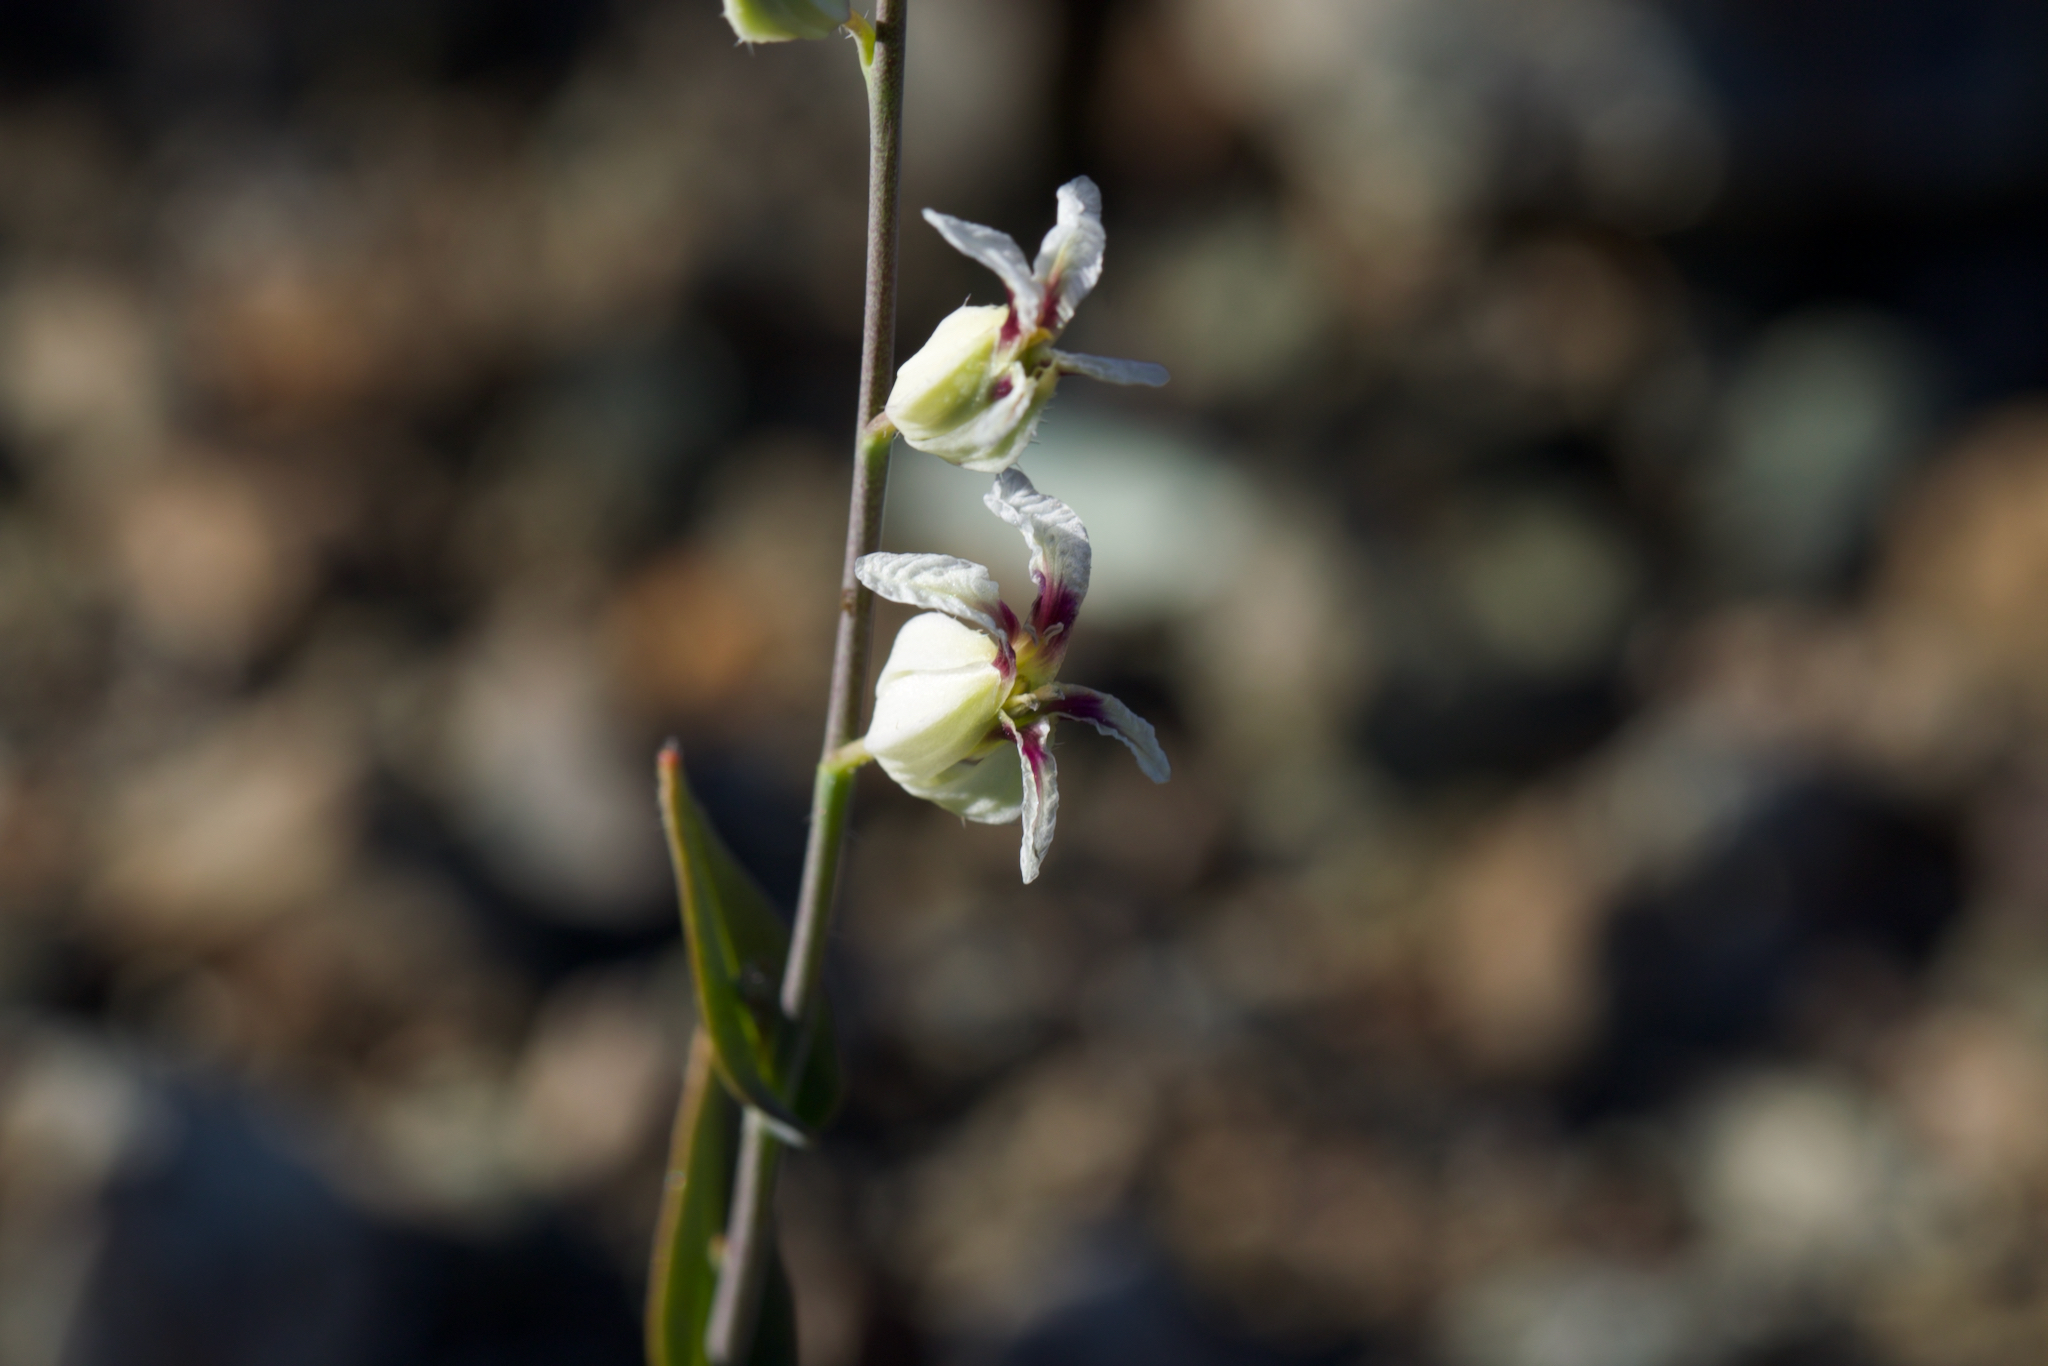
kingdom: Plantae
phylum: Tracheophyta
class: Magnoliopsida
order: Brassicales
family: Brassicaceae
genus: Streptanthus
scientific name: Streptanthus glandulosus
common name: Jewel-flower
